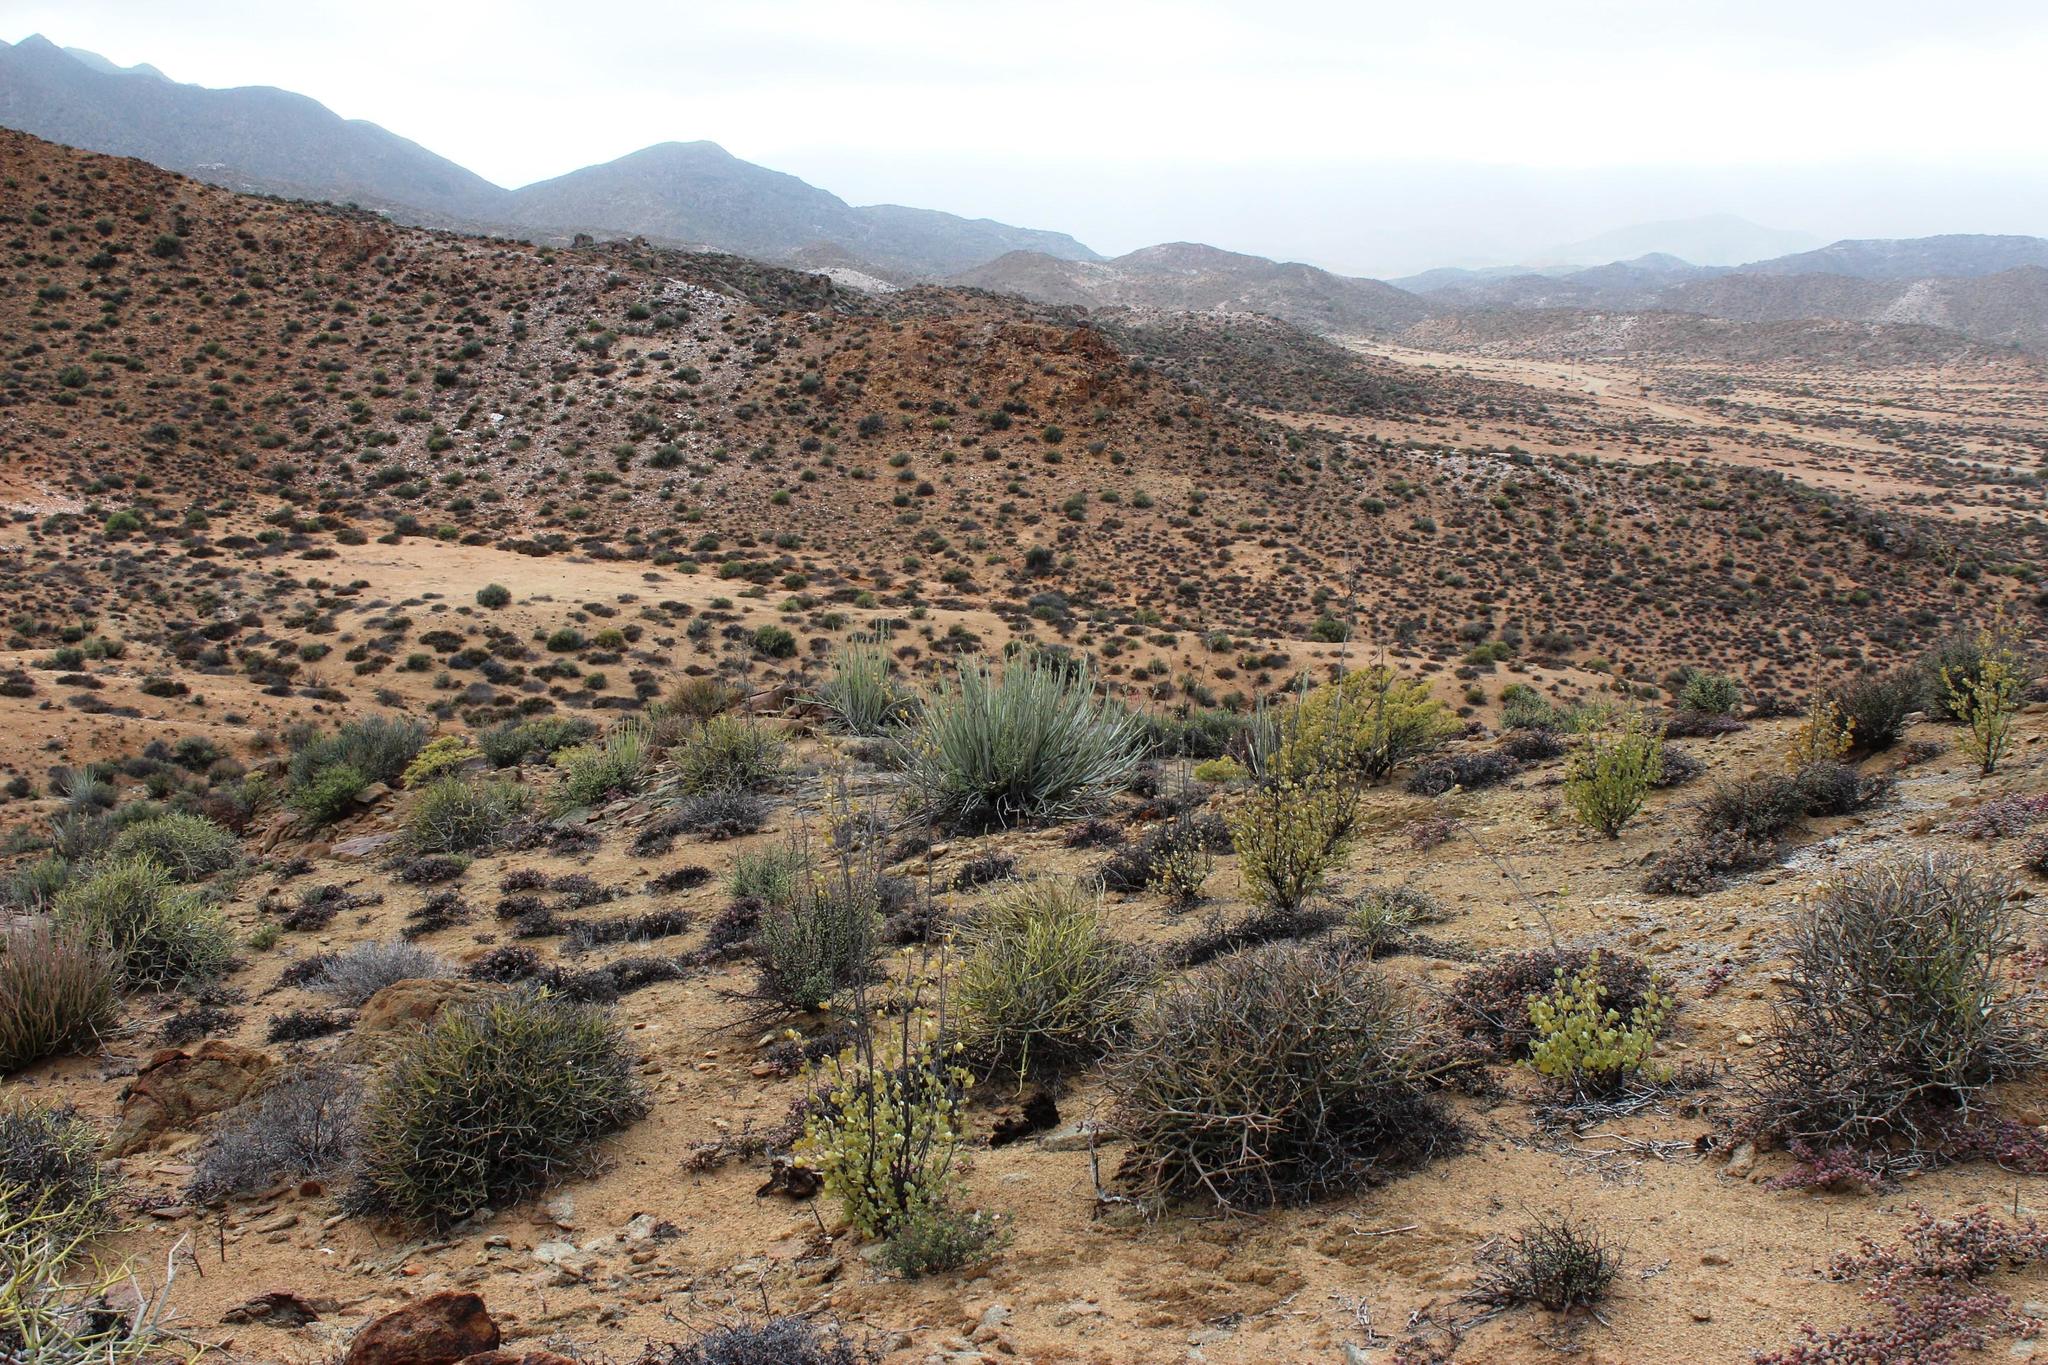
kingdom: Plantae
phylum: Tracheophyta
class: Magnoliopsida
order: Malpighiales
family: Euphorbiaceae
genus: Euphorbia
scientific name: Euphorbia dregeana
